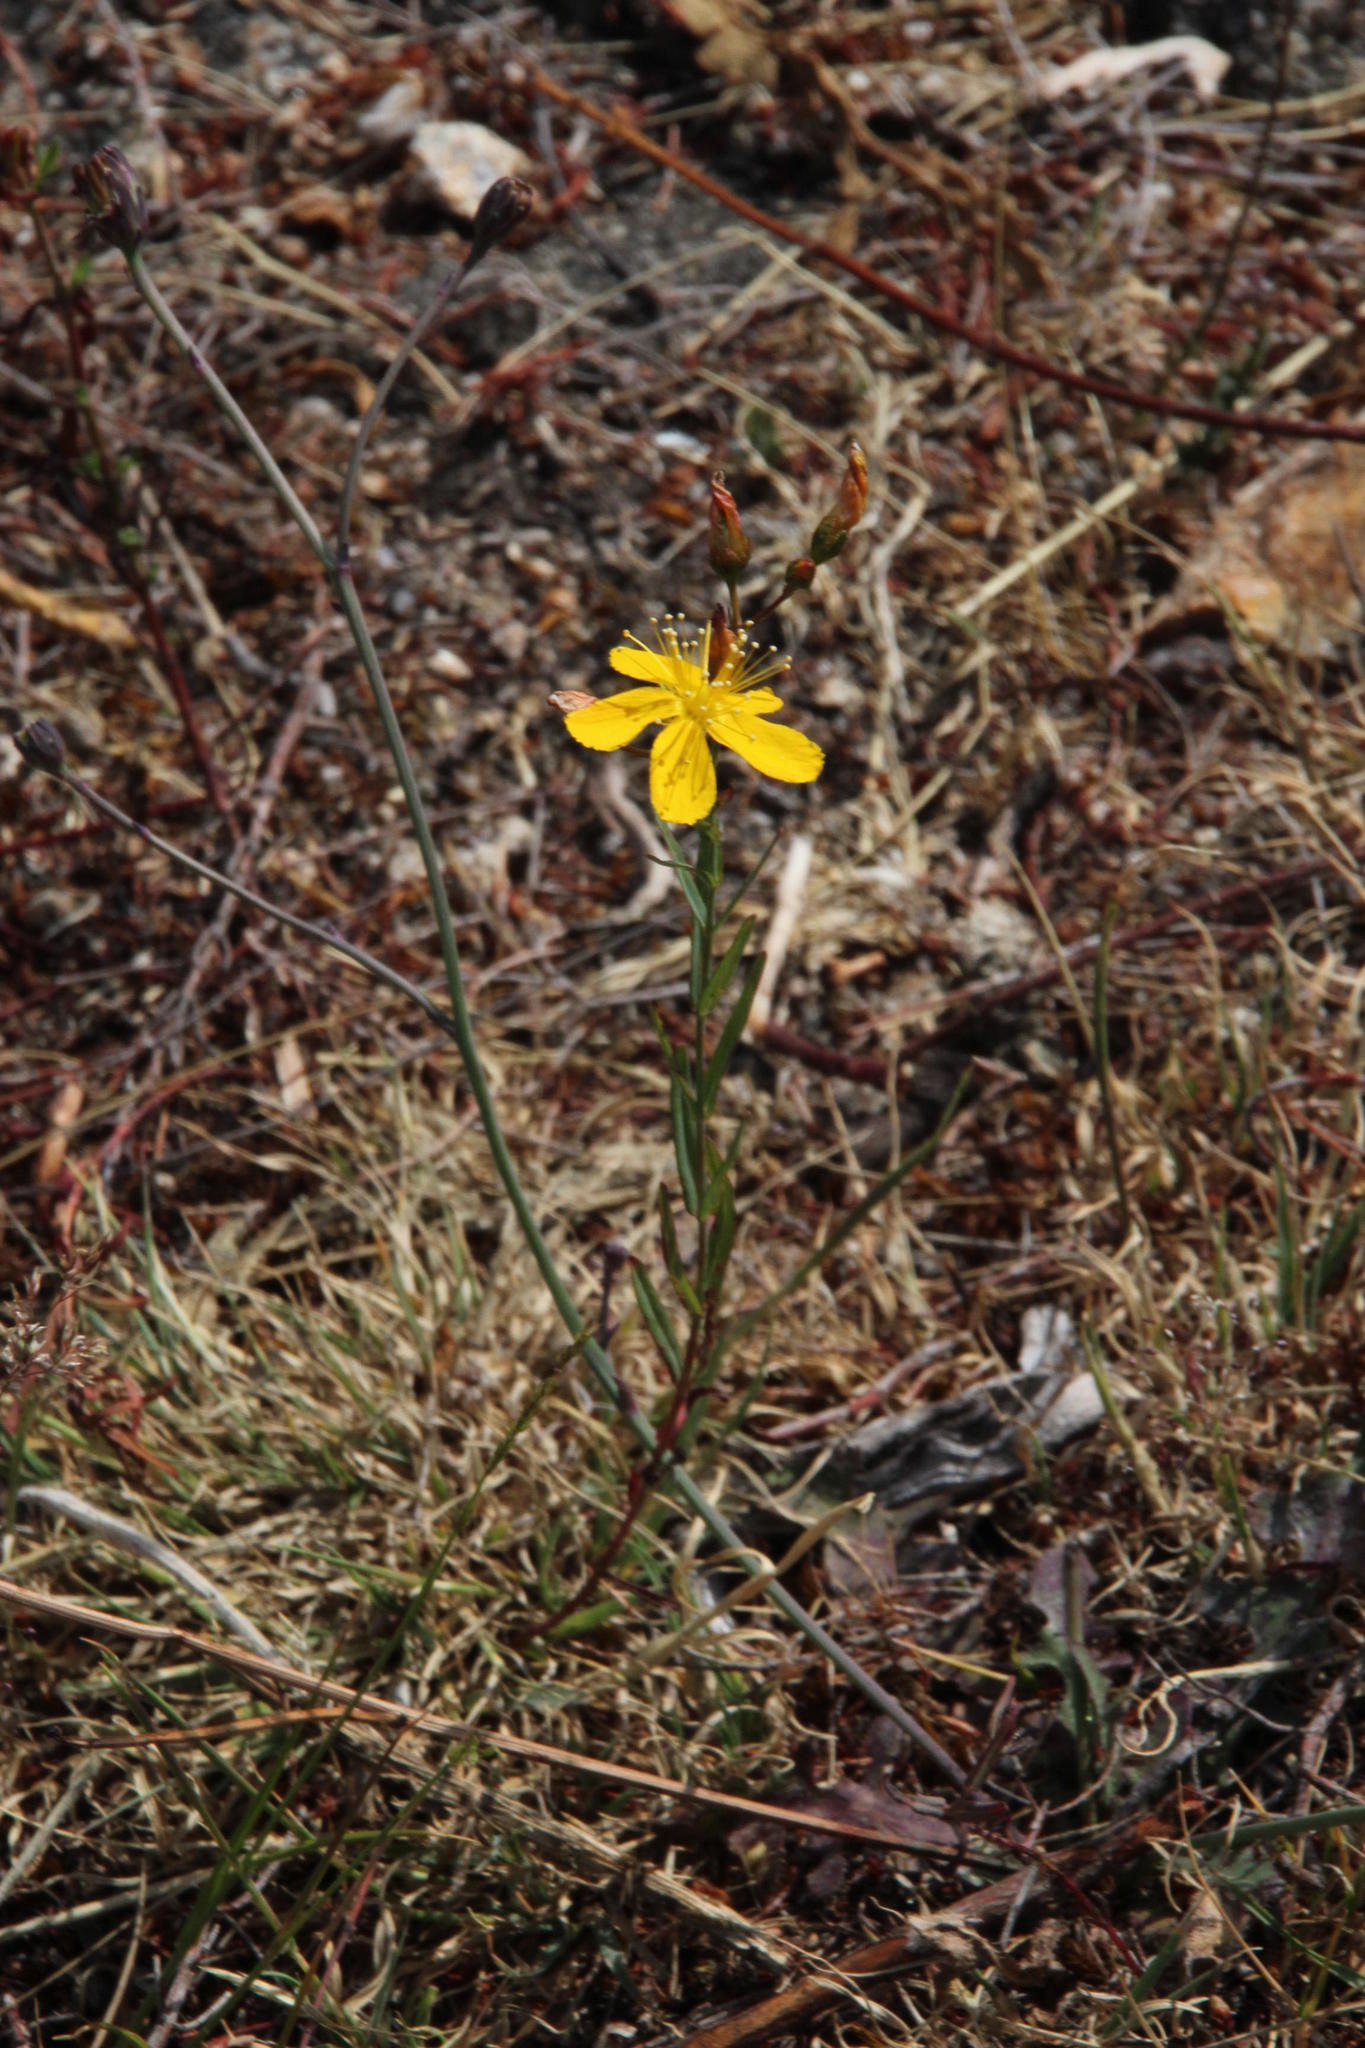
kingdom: Plantae
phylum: Tracheophyta
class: Magnoliopsida
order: Malpighiales
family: Hypericaceae
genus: Hypericum
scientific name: Hypericum linariifolium
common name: Toadflax-leaved st. john's-wort
